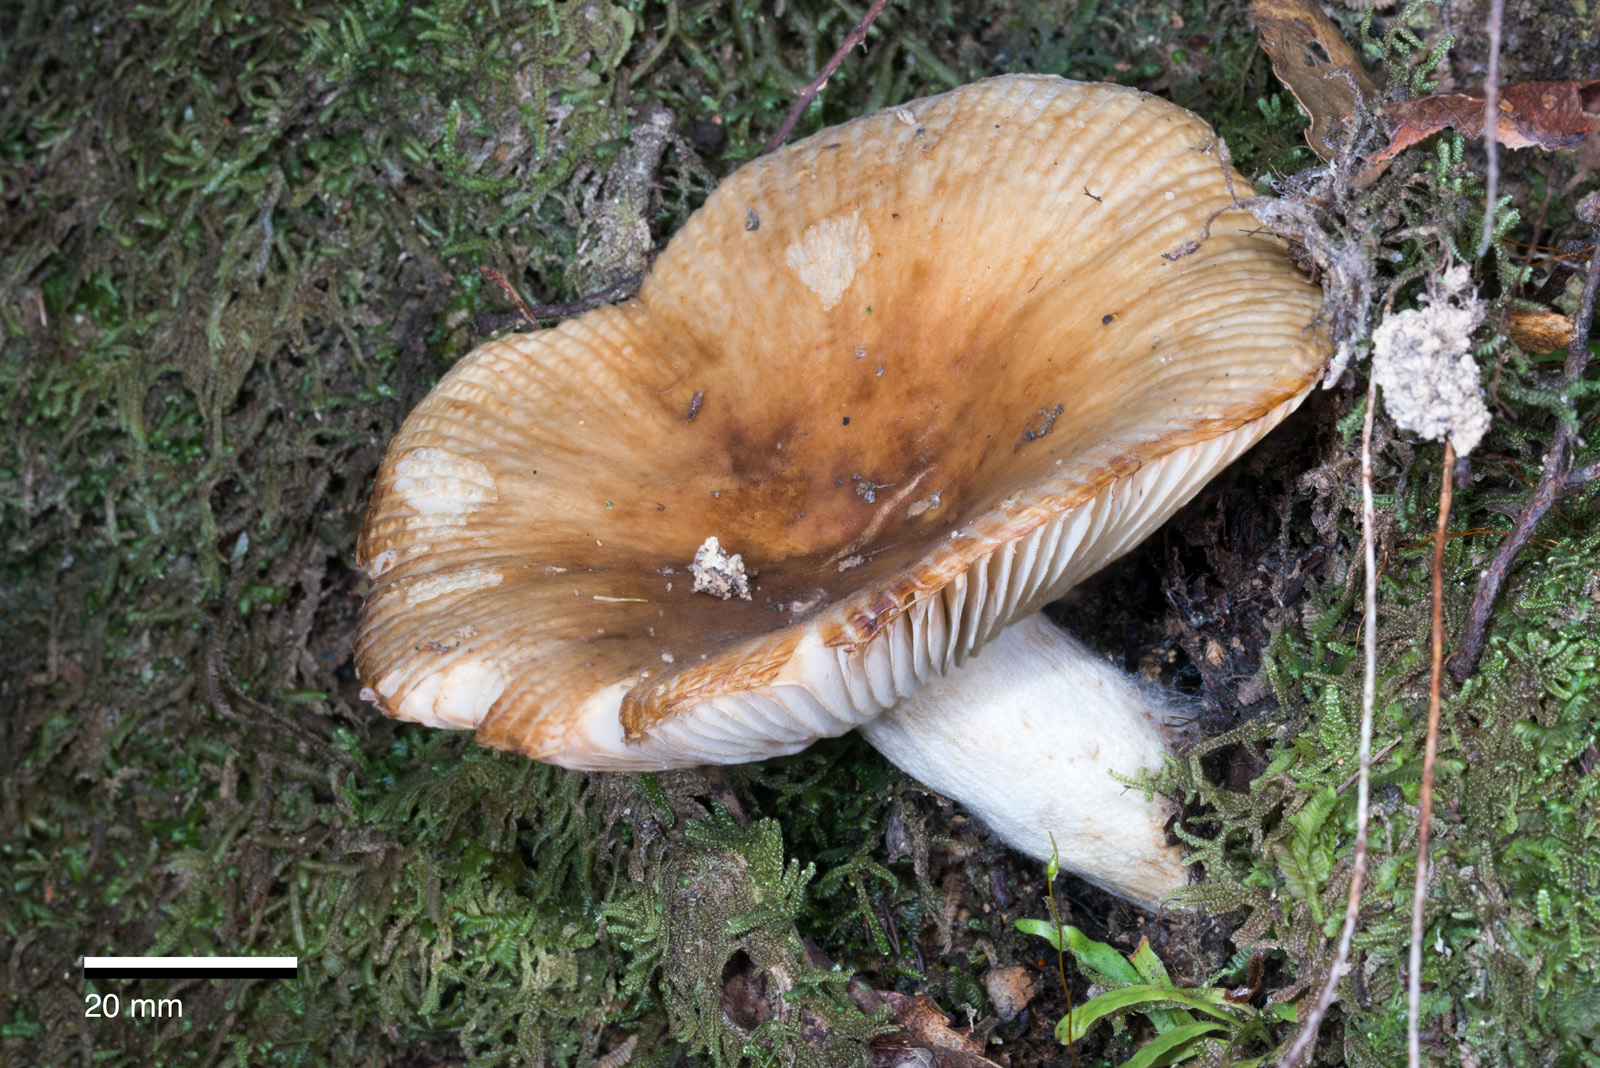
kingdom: Fungi
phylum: Basidiomycota
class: Agaricomycetes
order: Russulales
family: Russulaceae
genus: Russula
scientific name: Russula novae-zelandiae
